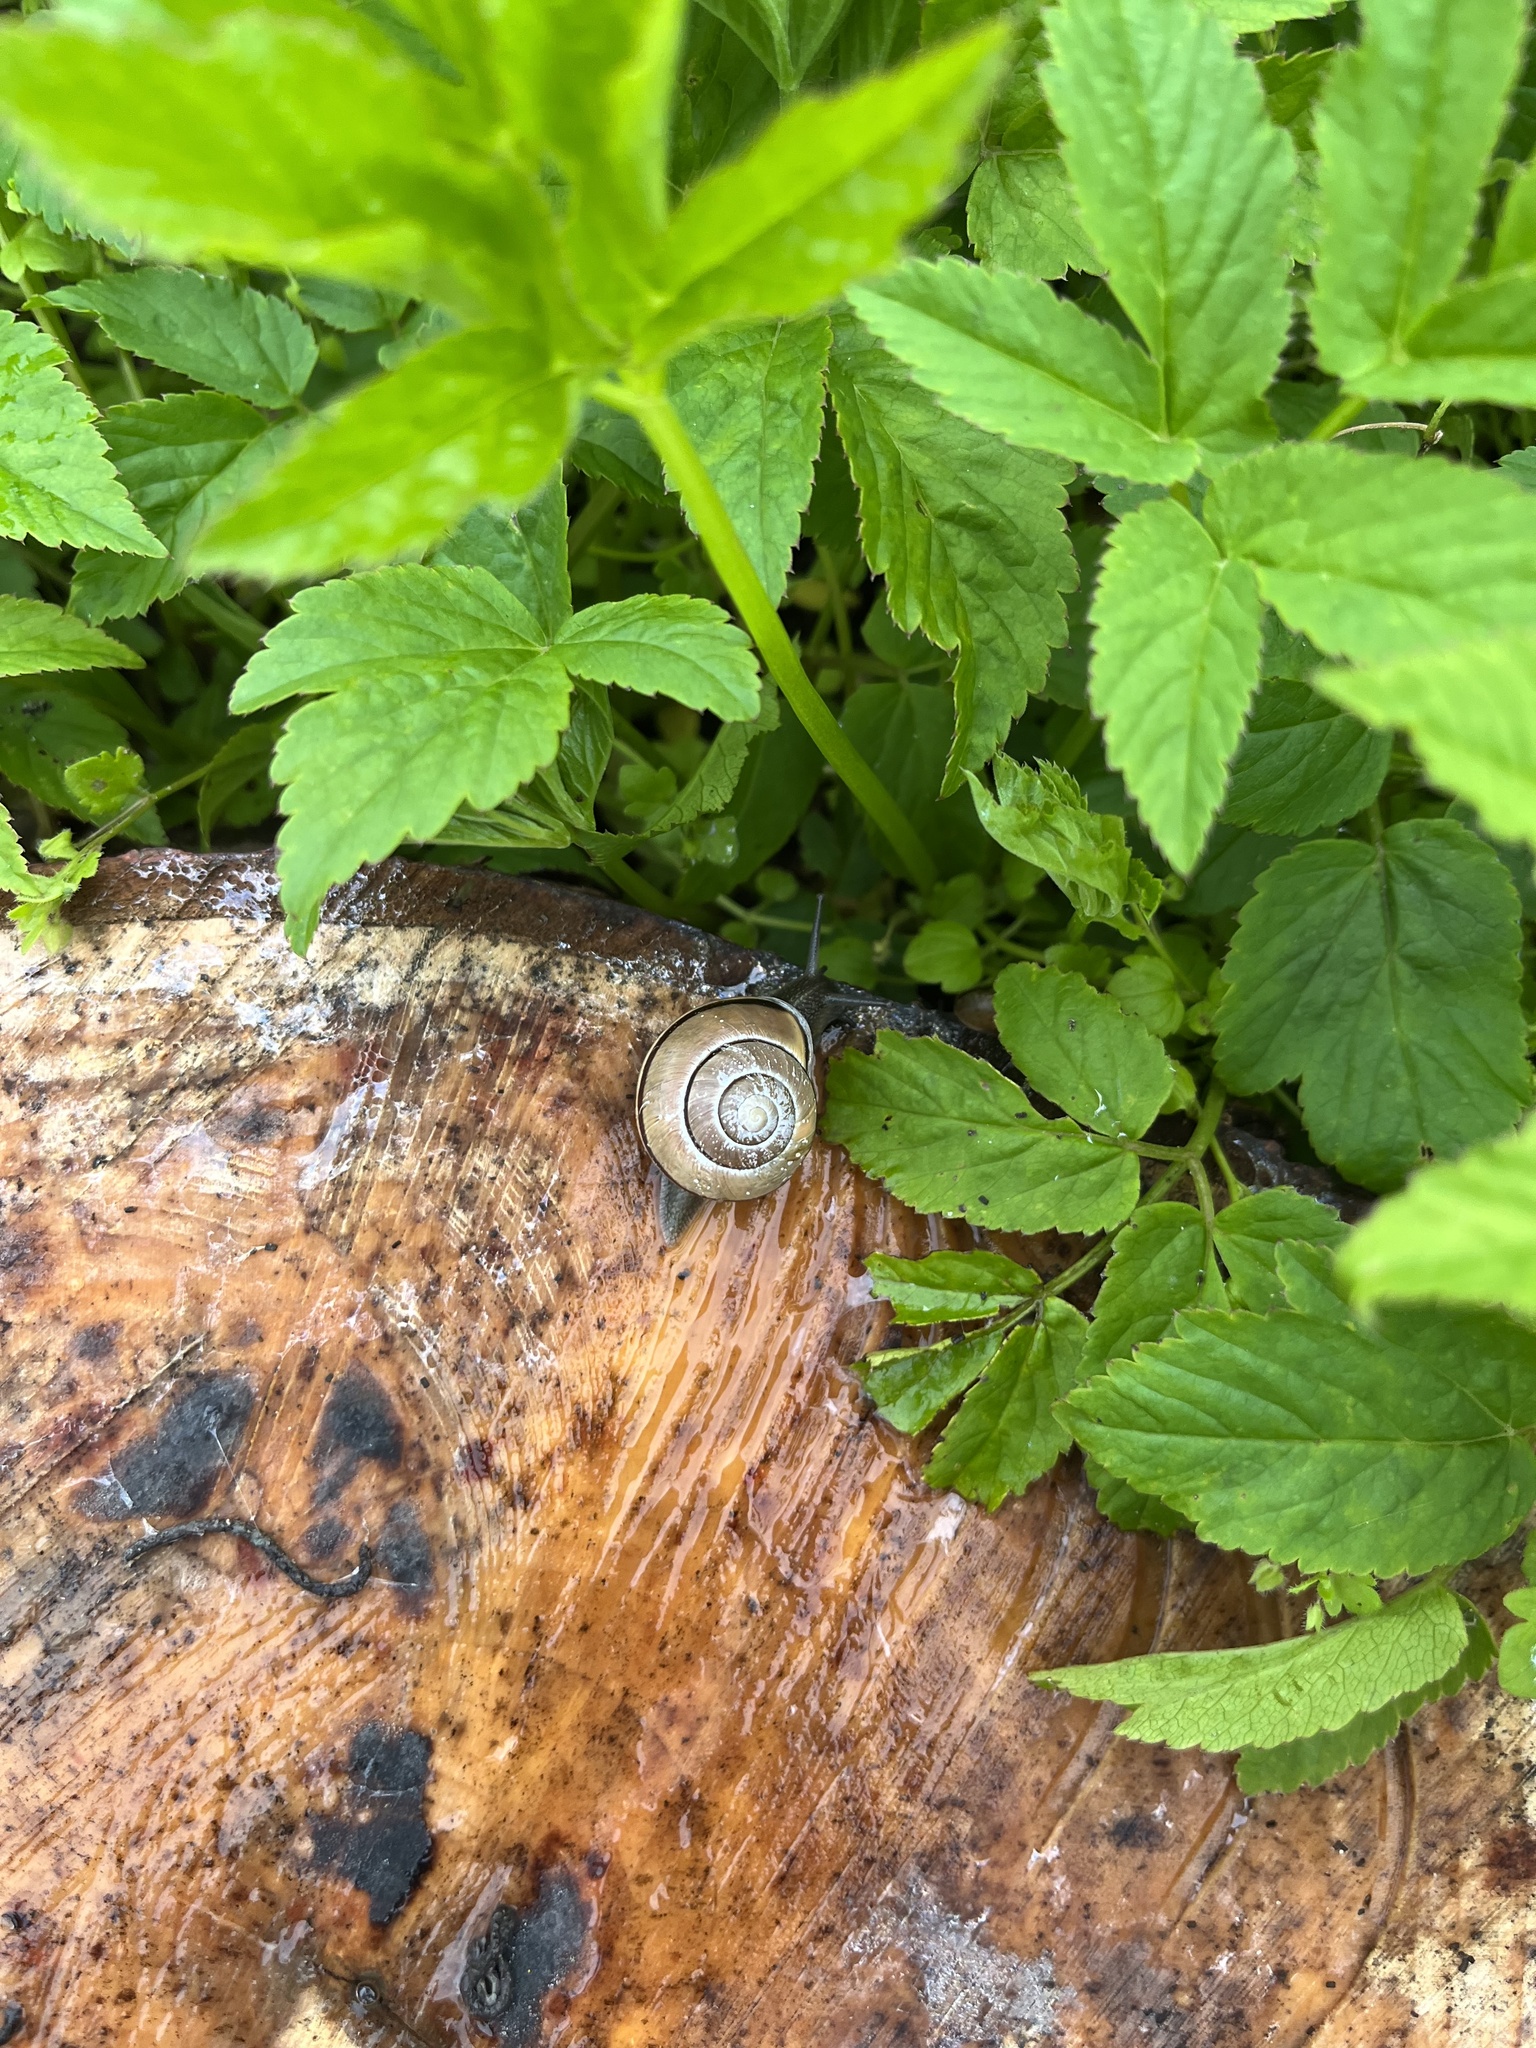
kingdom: Animalia
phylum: Mollusca
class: Gastropoda
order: Stylommatophora
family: Helicidae
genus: Cepaea
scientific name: Cepaea nemoralis
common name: Grovesnail
